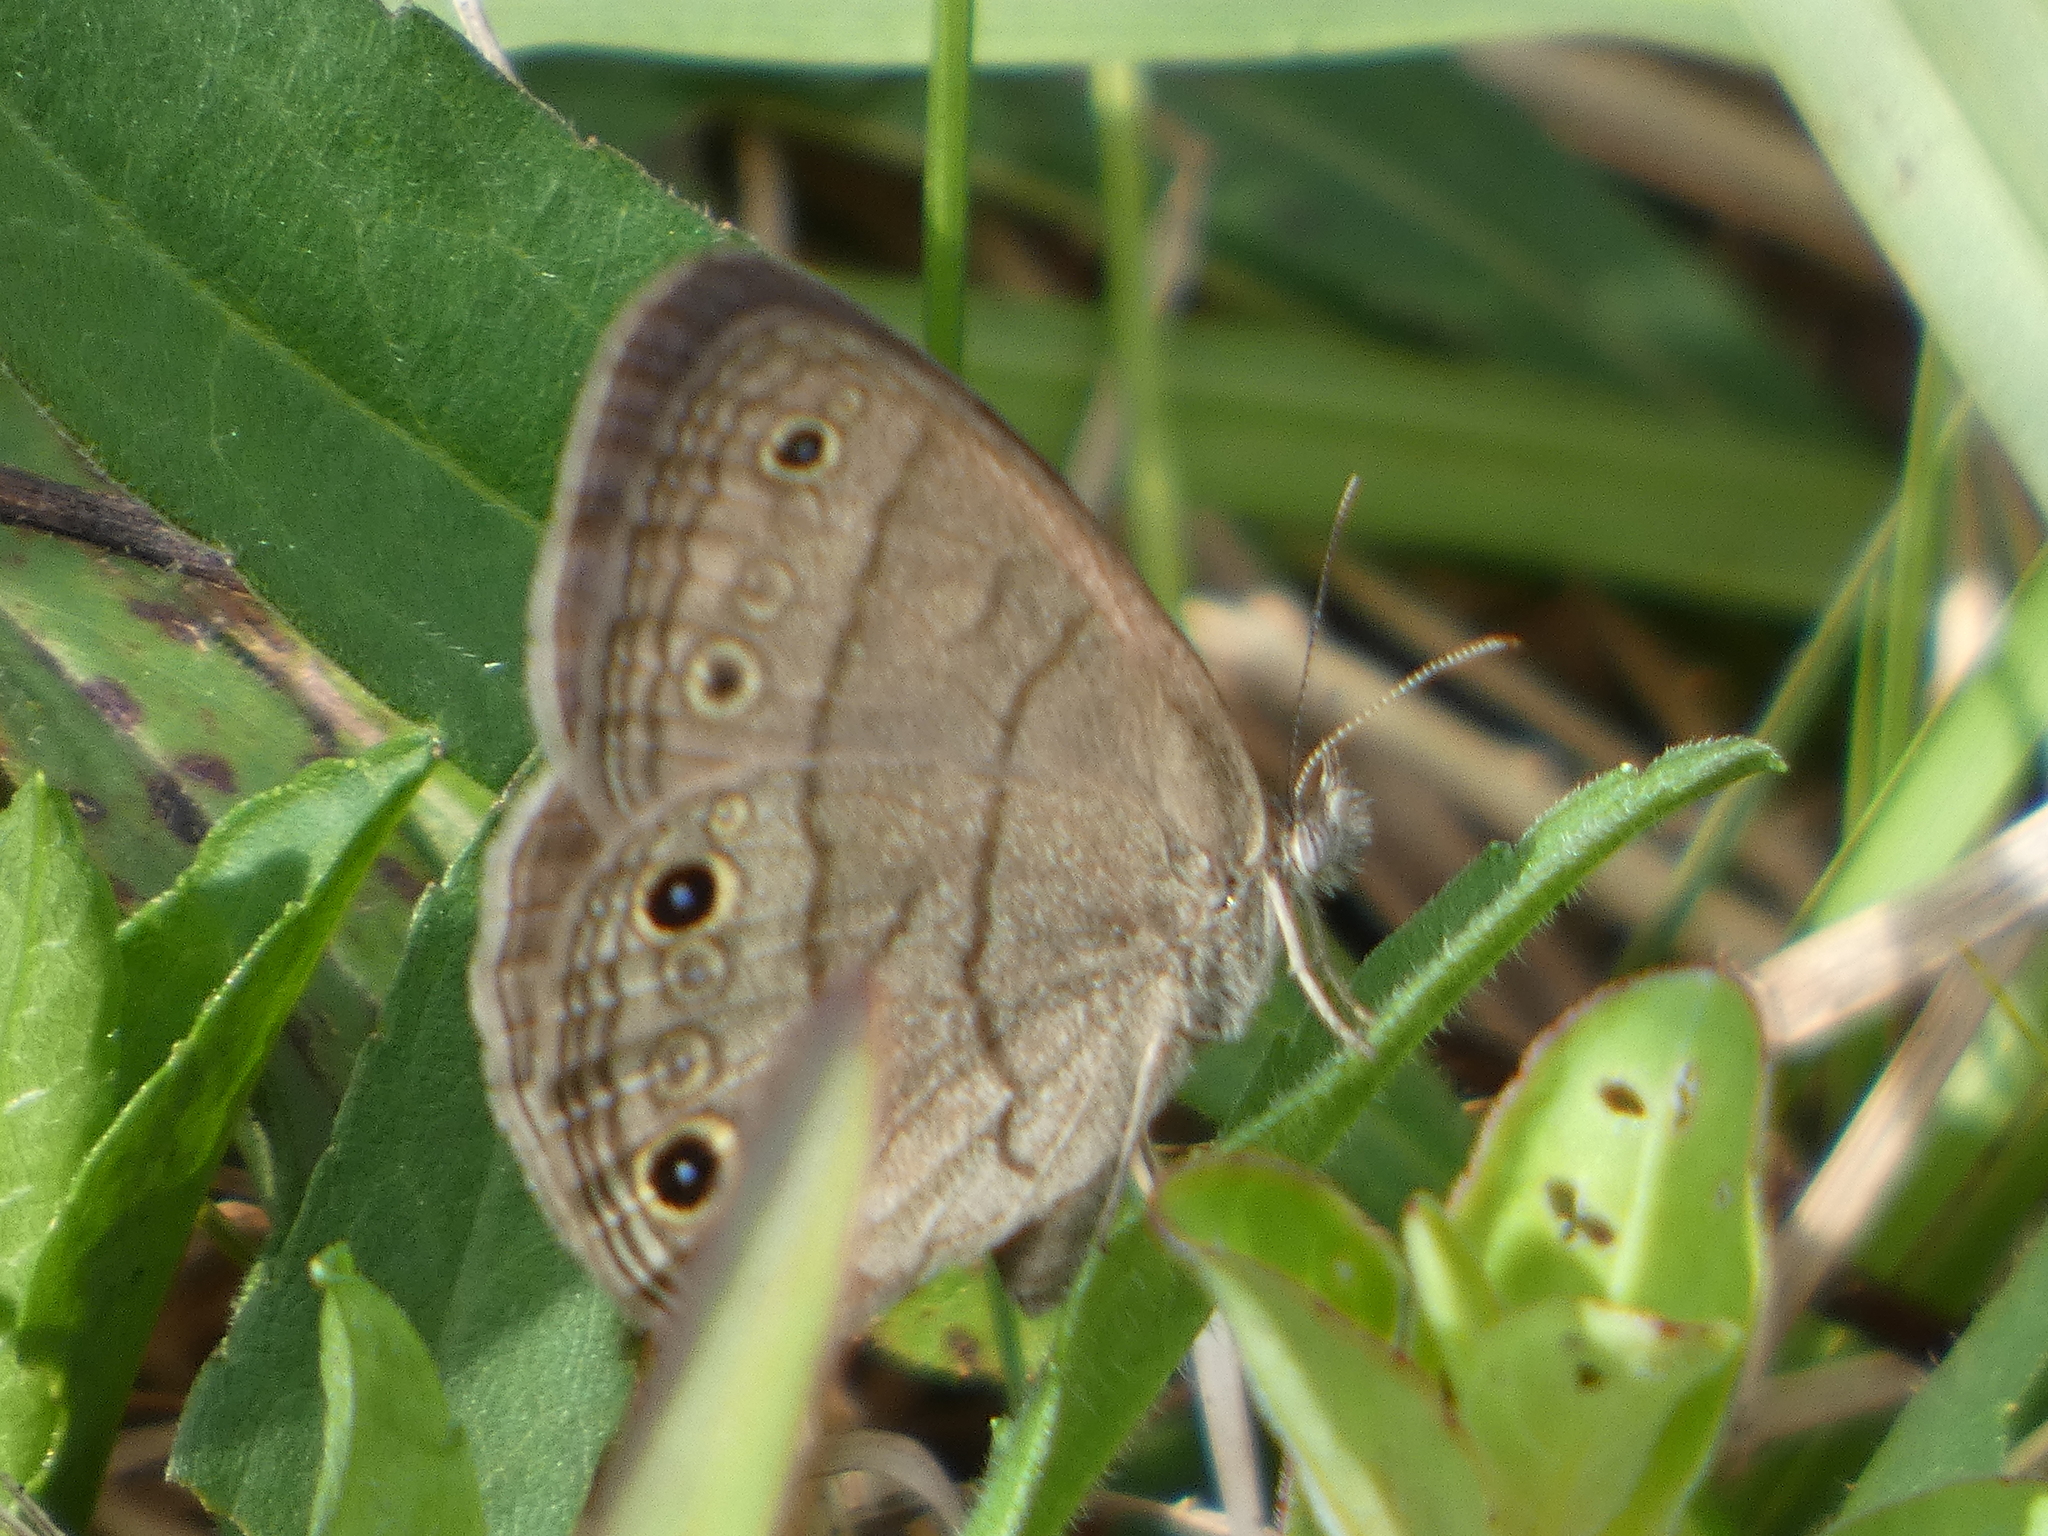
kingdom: Animalia
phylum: Arthropoda
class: Insecta
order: Lepidoptera
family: Nymphalidae
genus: Hermeuptychia
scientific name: Hermeuptychia hermes
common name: Hermes satyr
